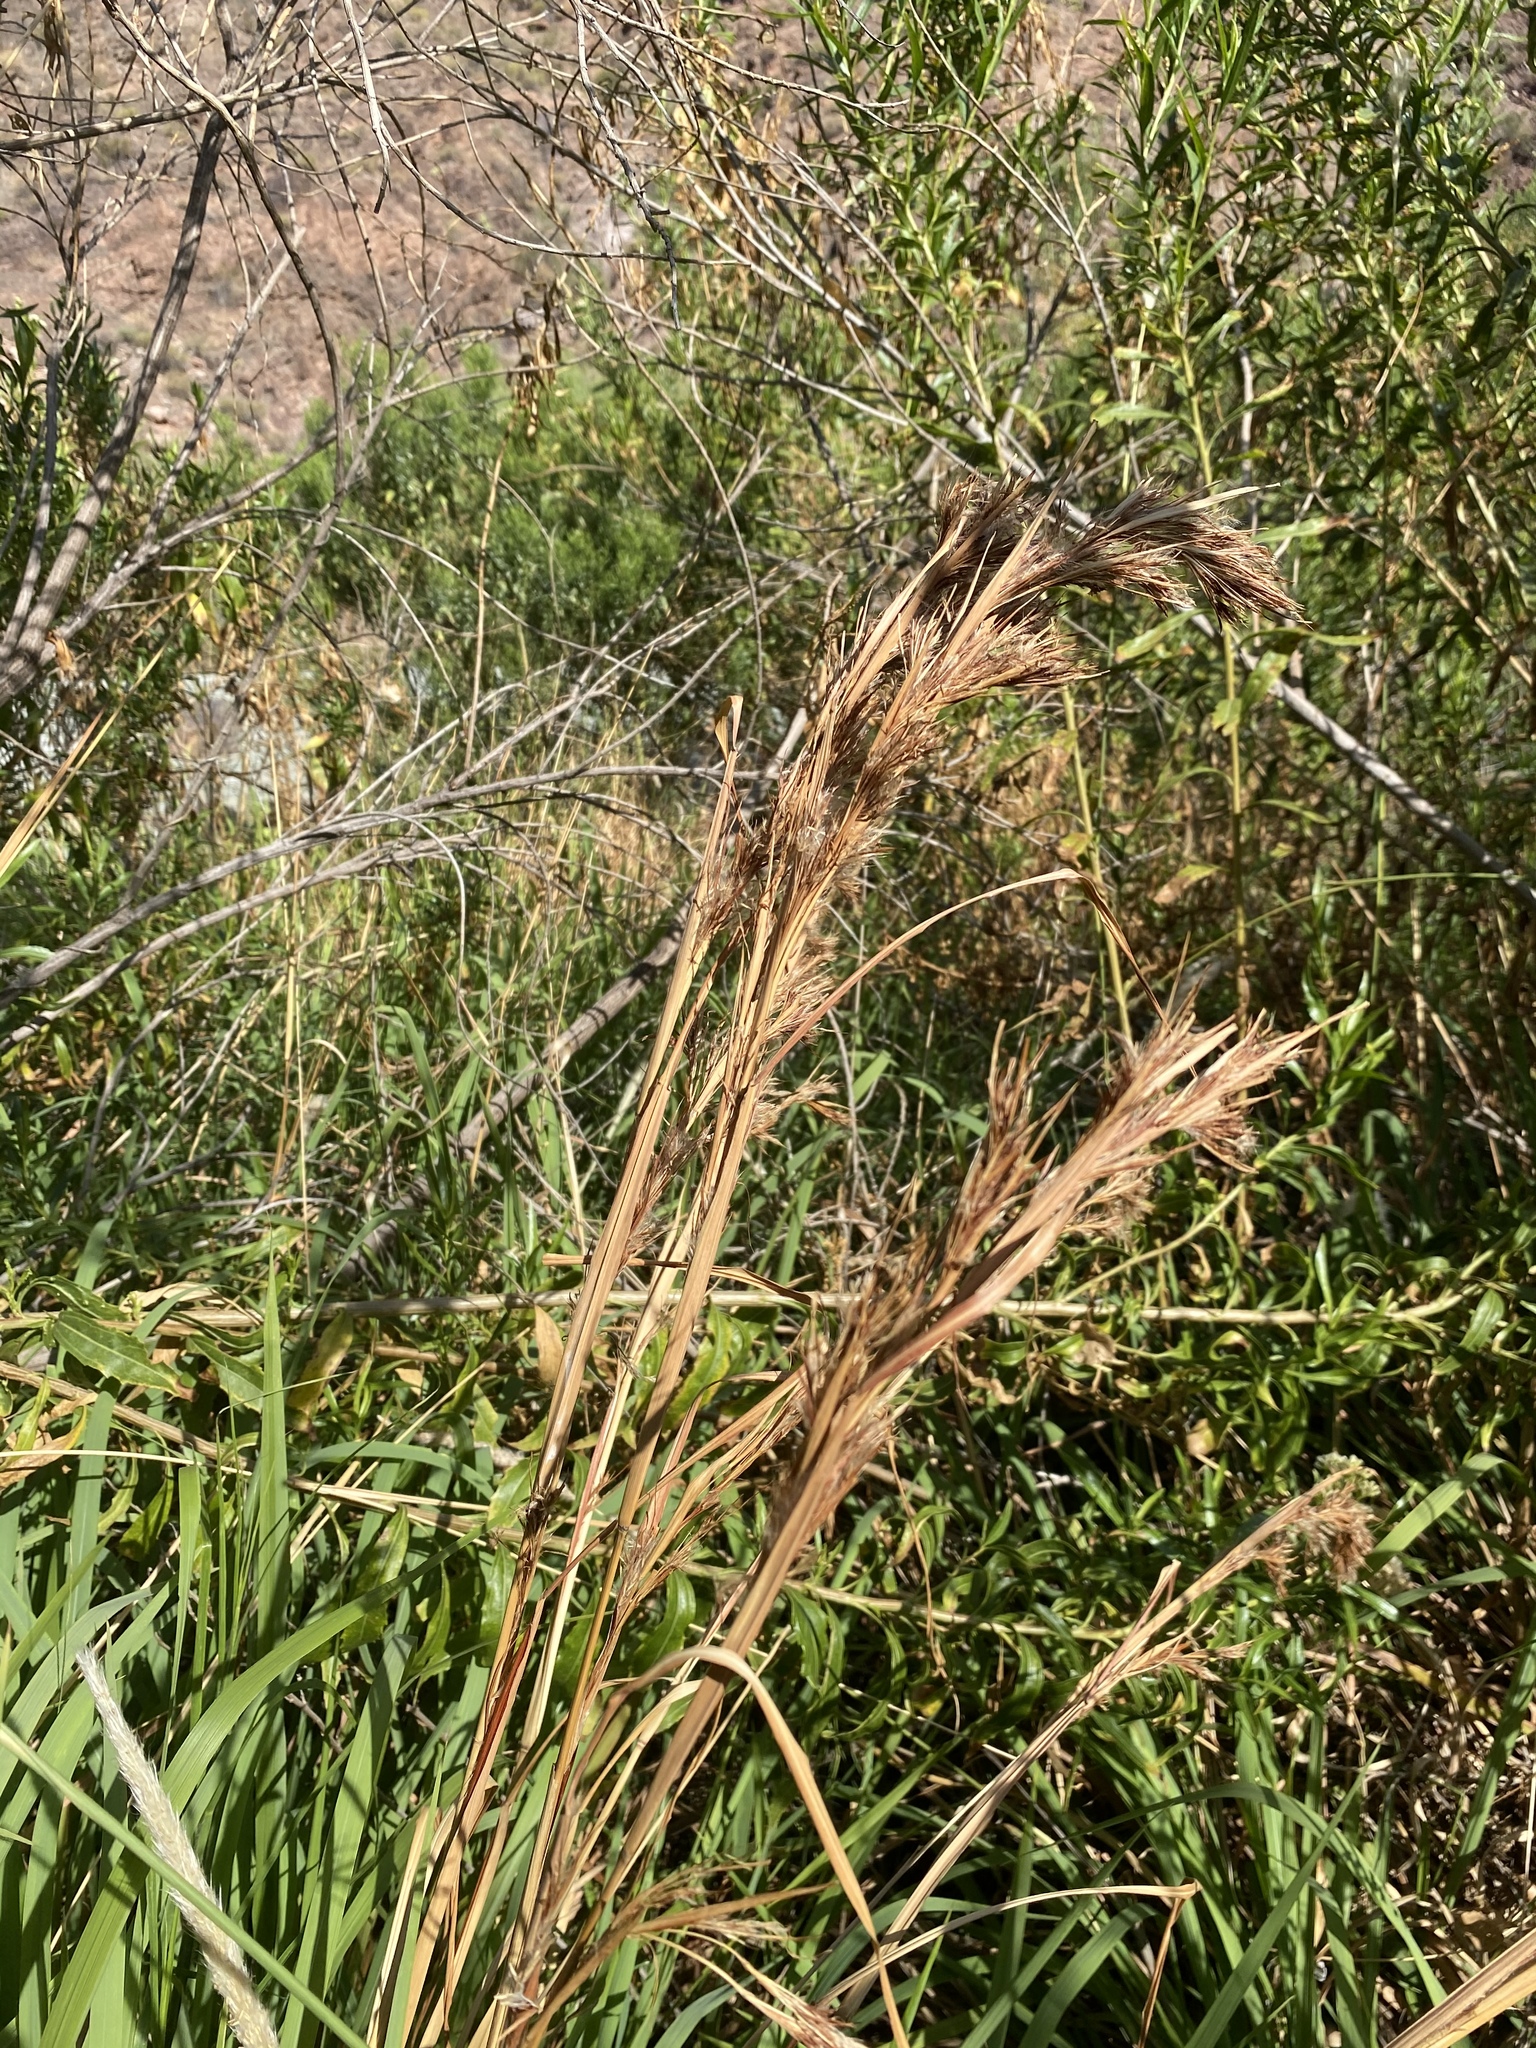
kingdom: Plantae
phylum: Tracheophyta
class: Liliopsida
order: Poales
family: Poaceae
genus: Andropogon
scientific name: Andropogon eremicus
